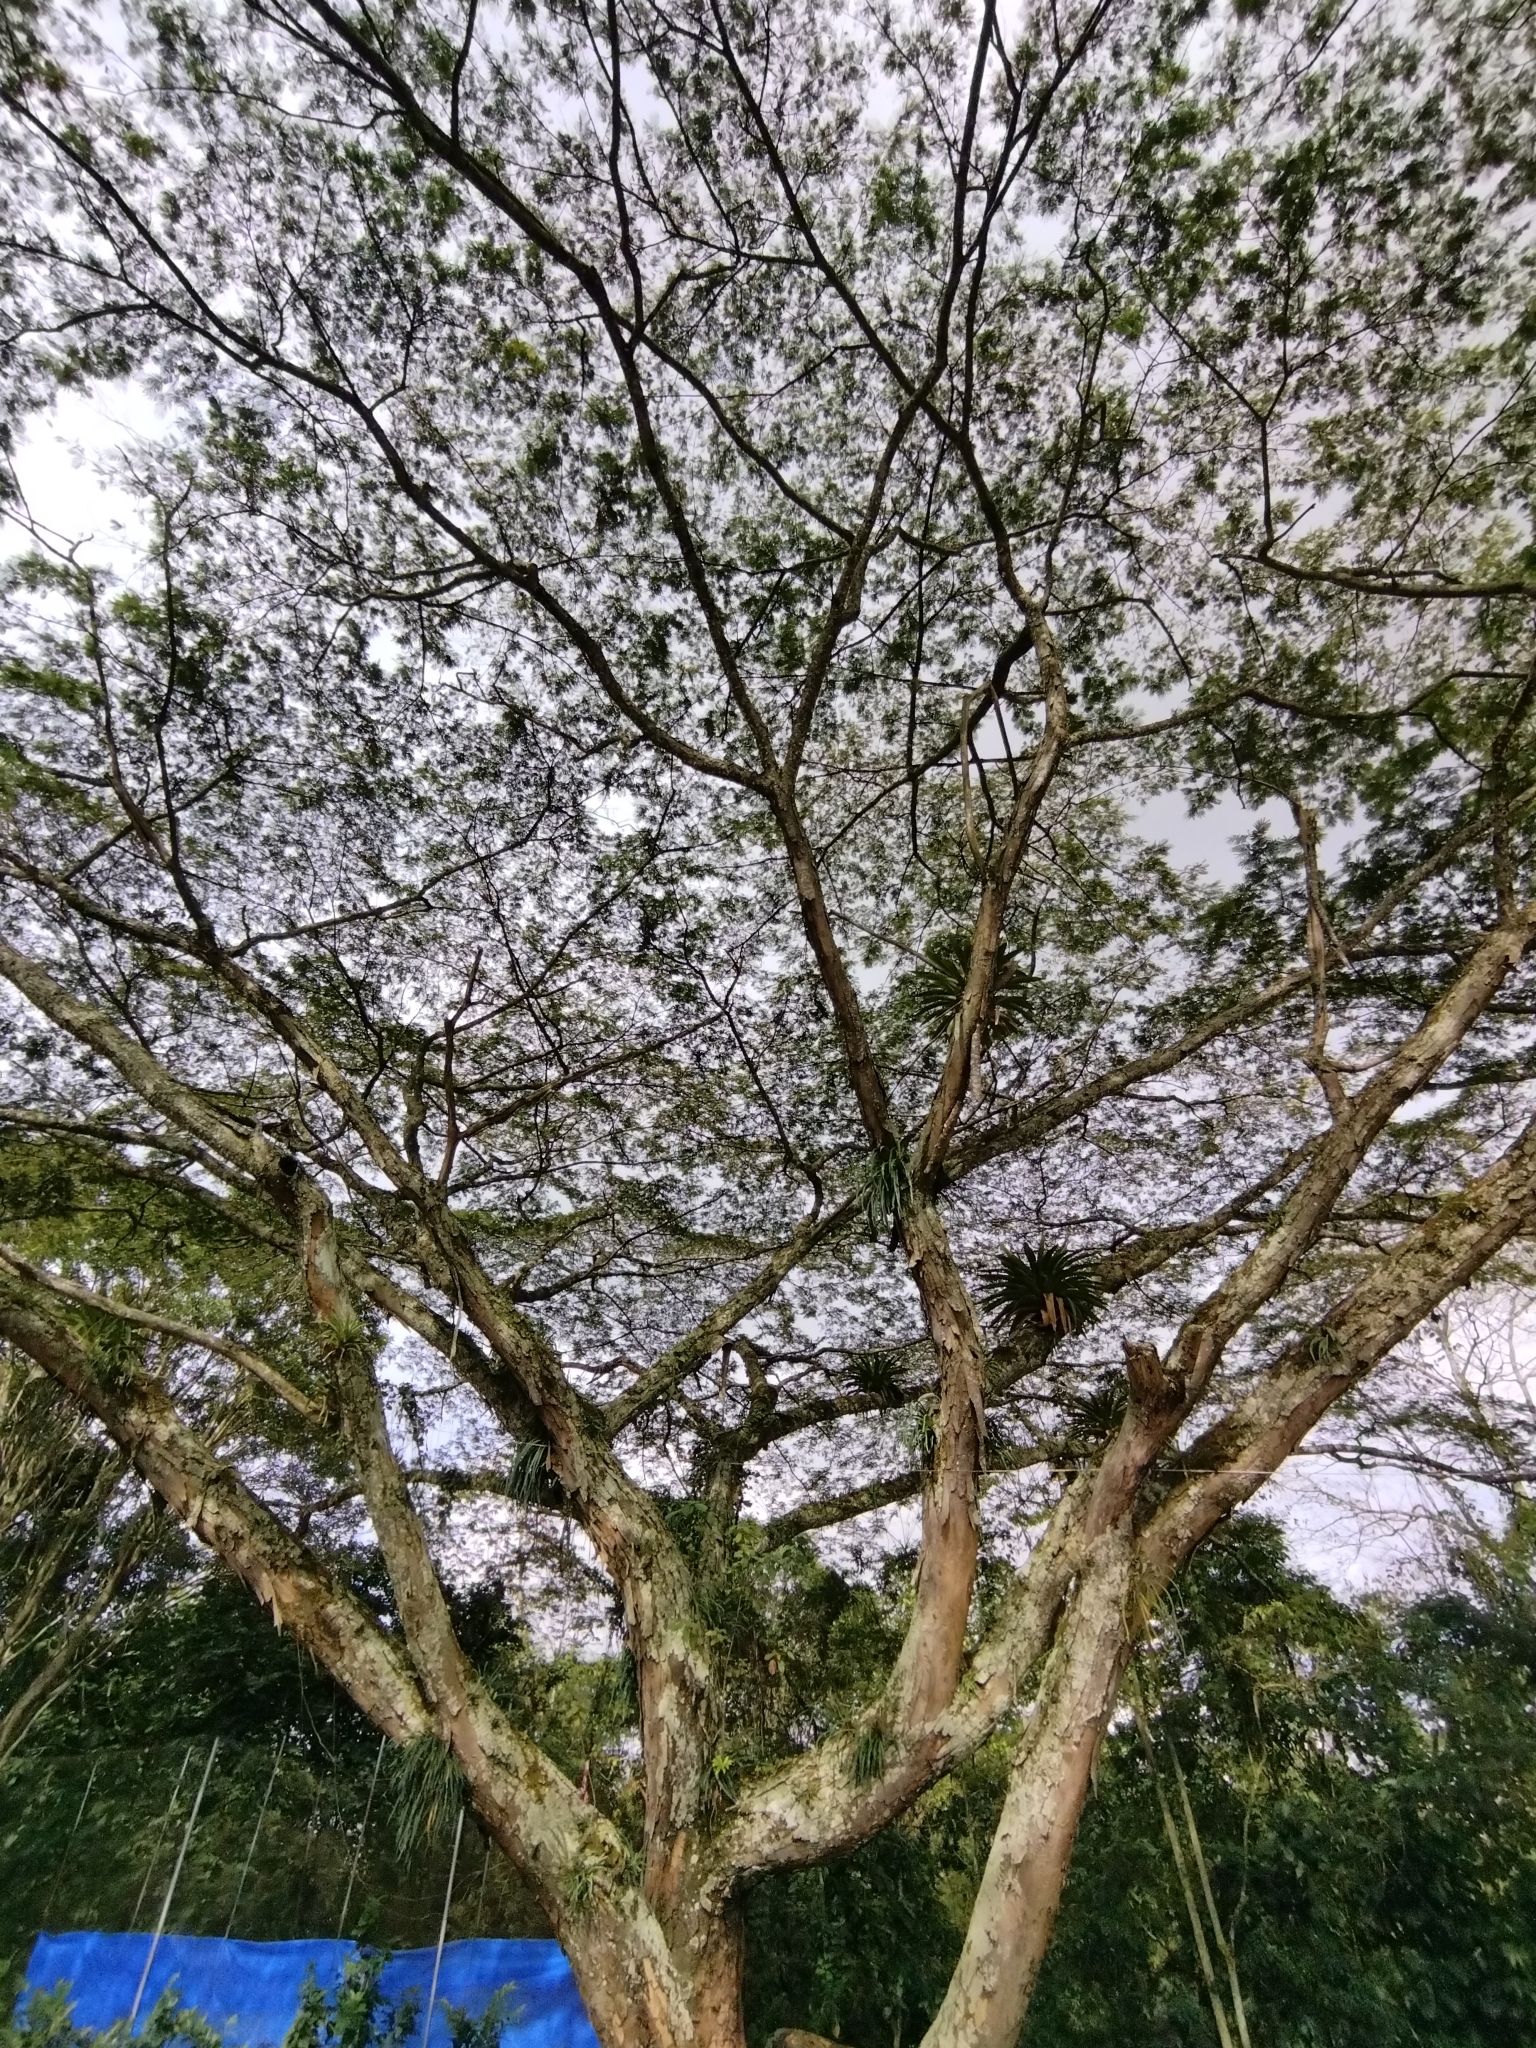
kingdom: Plantae
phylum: Tracheophyta
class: Magnoliopsida
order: Fabales
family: Fabaceae
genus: Albizia
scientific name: Albizia carbonaria
